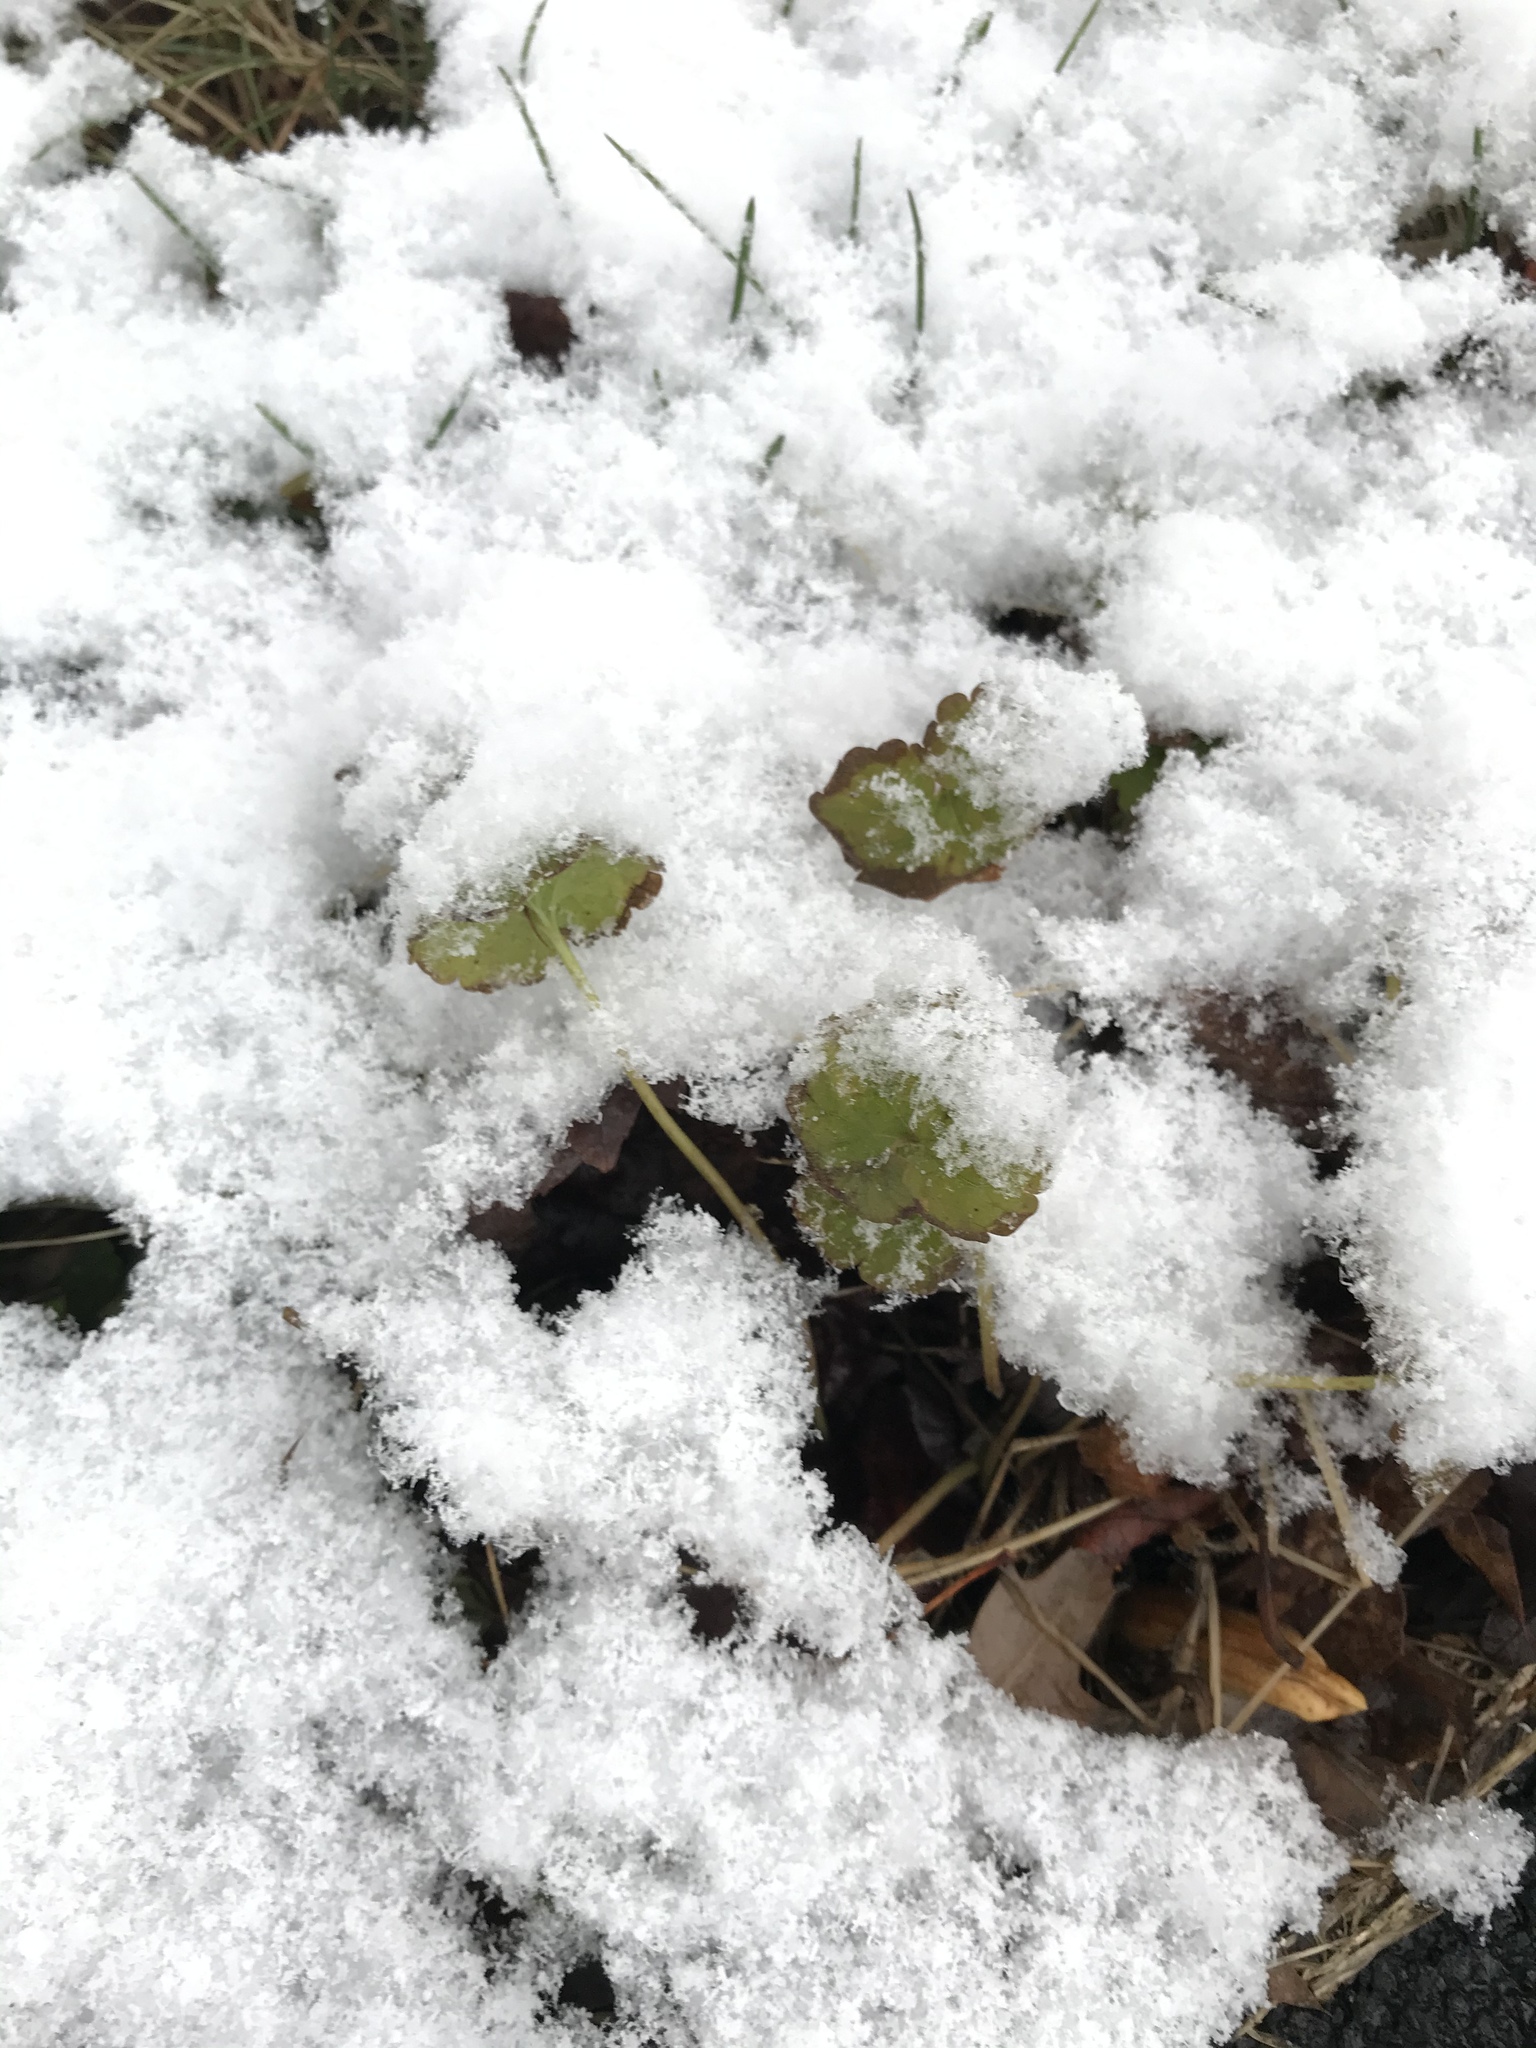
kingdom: Plantae
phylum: Tracheophyta
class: Magnoliopsida
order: Lamiales
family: Lamiaceae
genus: Glechoma
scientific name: Glechoma hederacea
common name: Ground ivy
